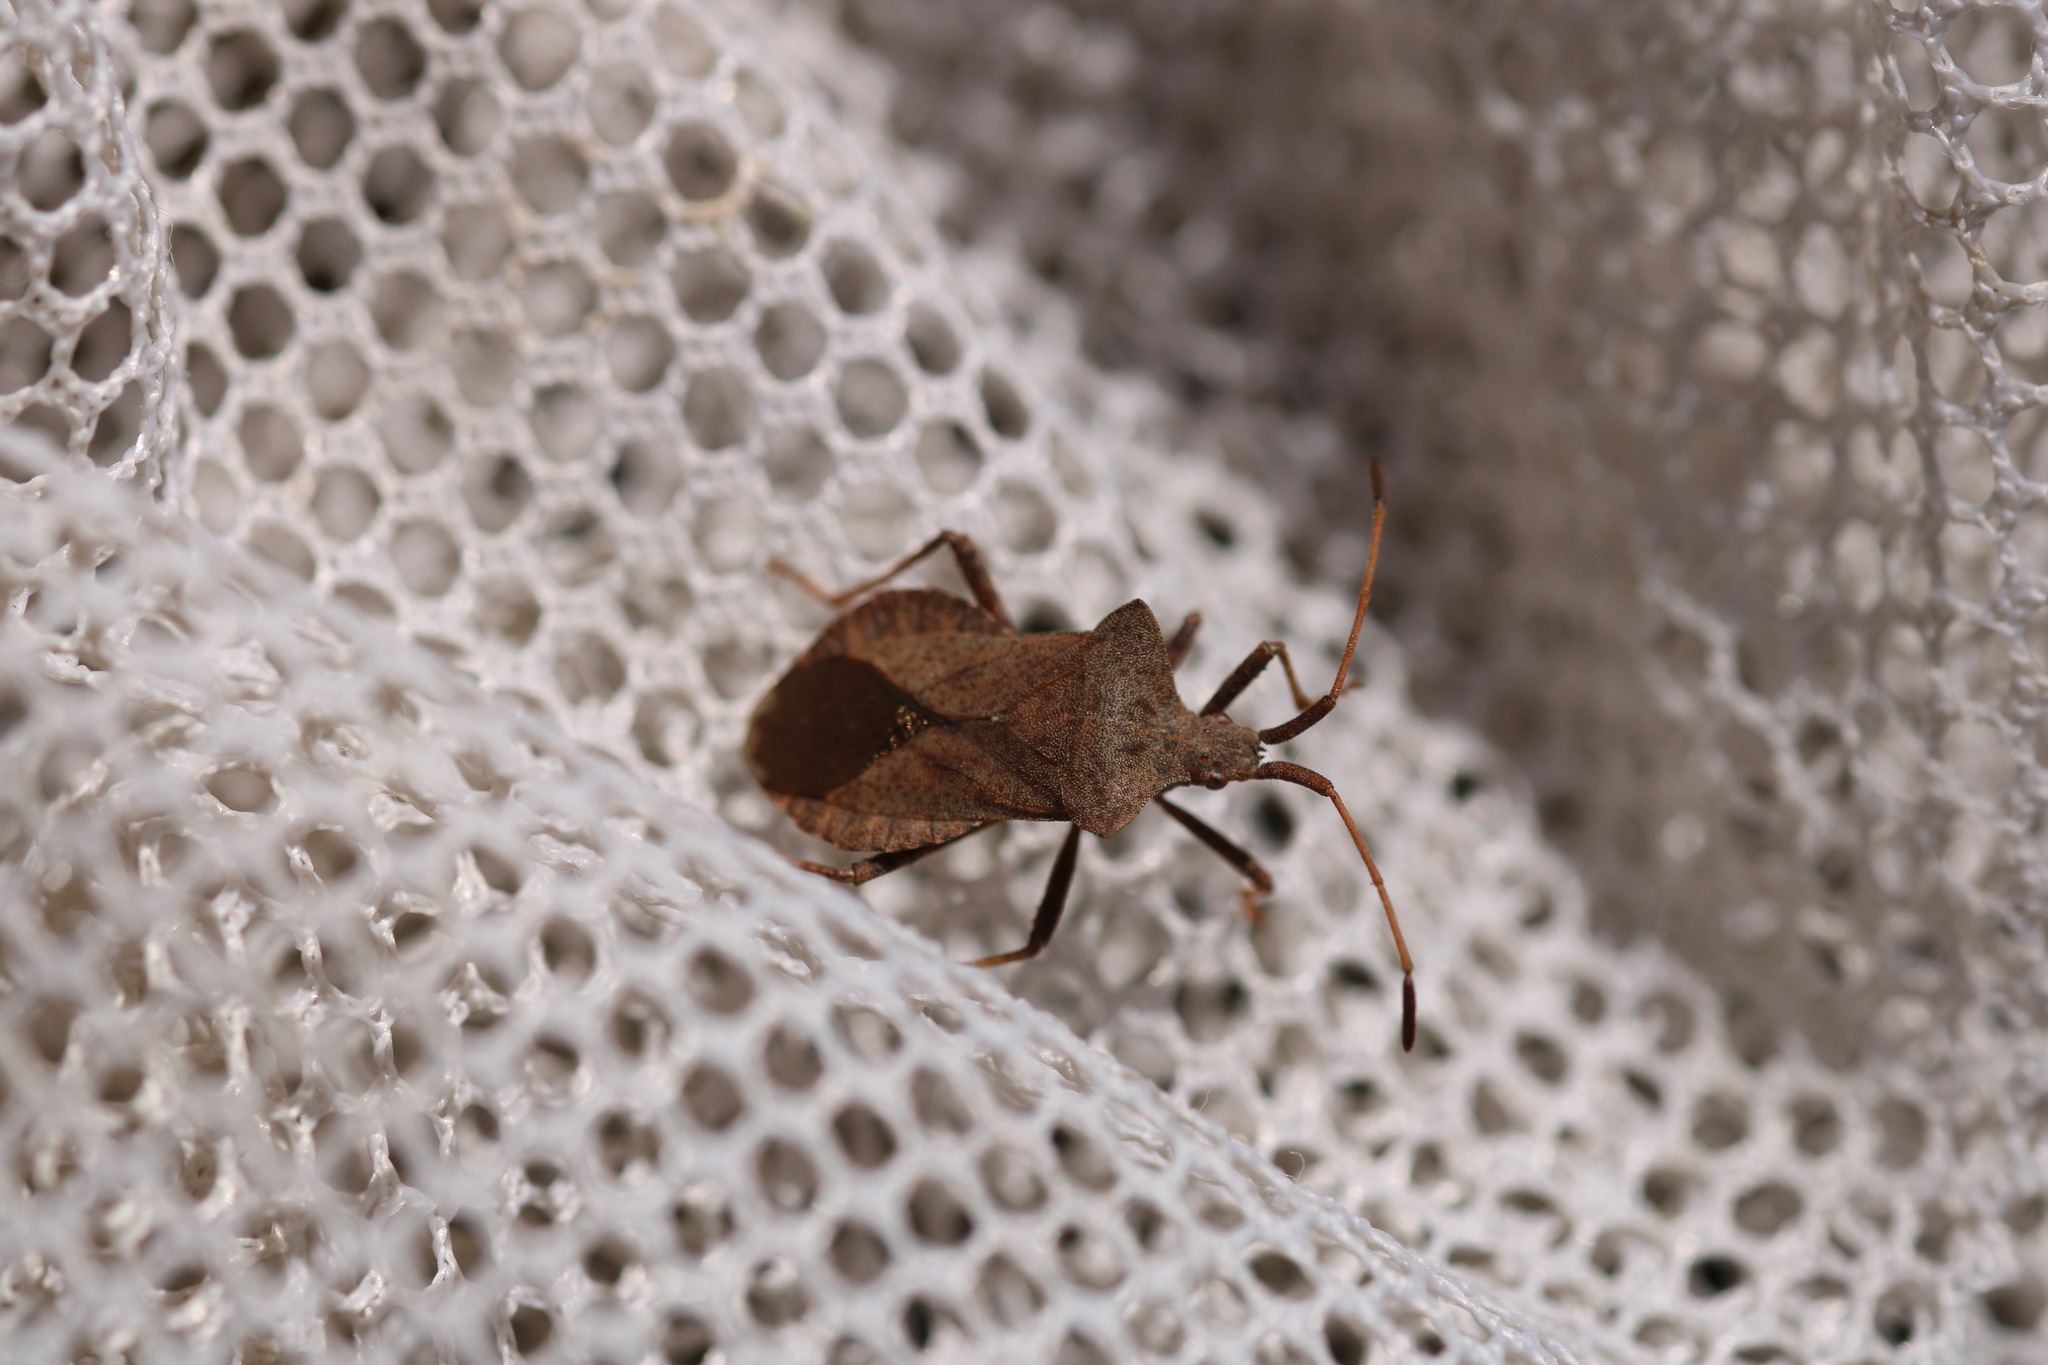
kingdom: Animalia
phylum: Arthropoda
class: Insecta
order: Hemiptera
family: Coreidae
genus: Coreus
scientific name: Coreus marginatus
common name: Dock bug
